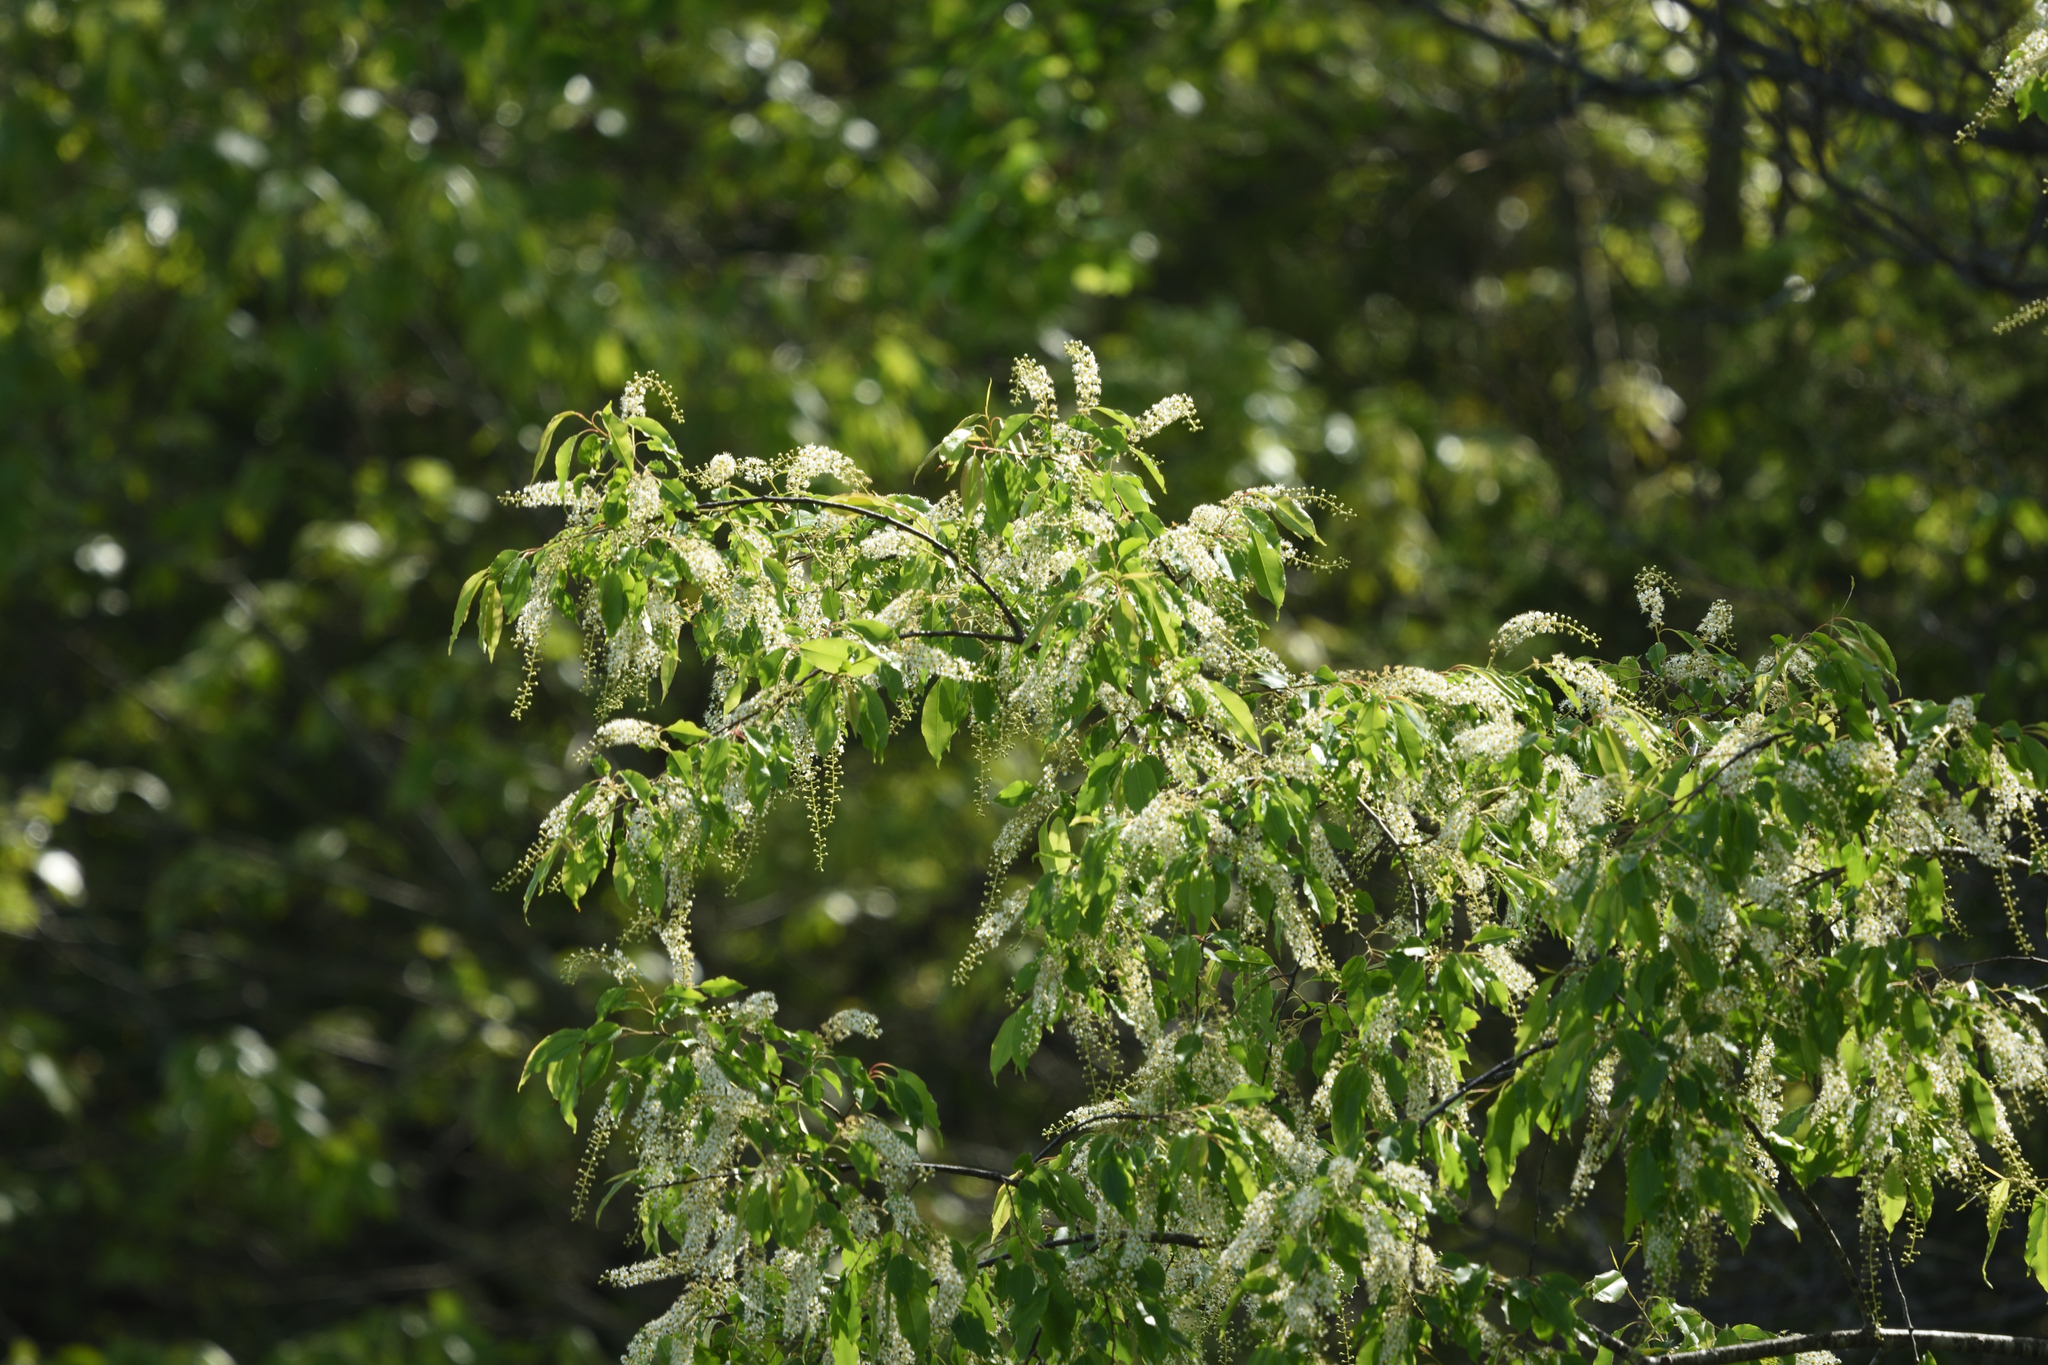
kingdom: Plantae
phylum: Tracheophyta
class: Magnoliopsida
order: Rosales
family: Rosaceae
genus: Prunus
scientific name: Prunus serotina
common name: Black cherry
